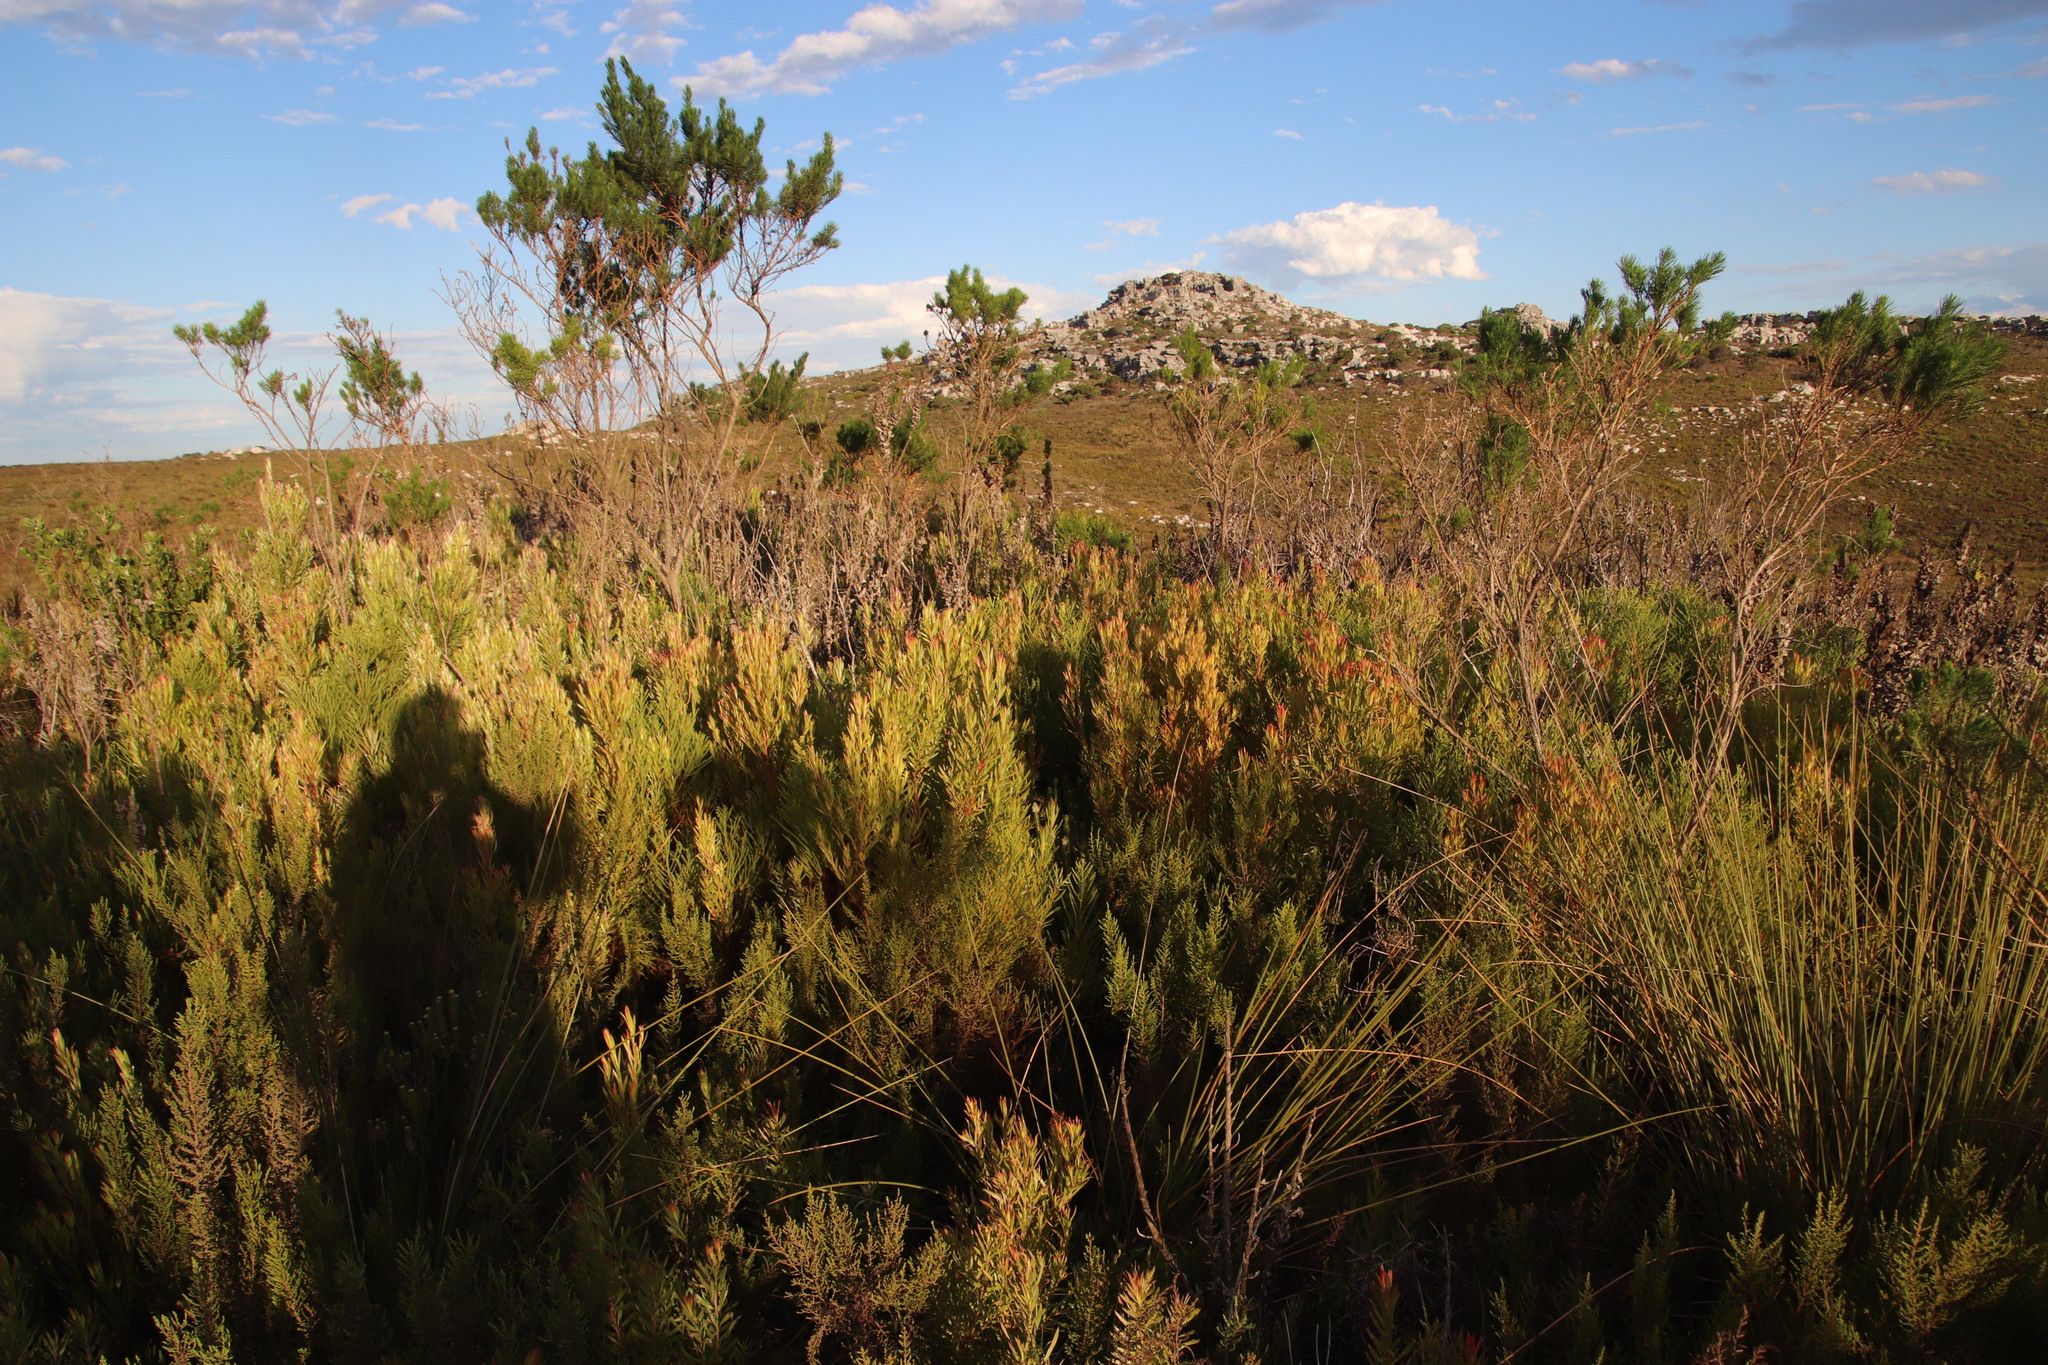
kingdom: Plantae
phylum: Tracheophyta
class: Magnoliopsida
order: Proteales
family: Proteaceae
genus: Leucadendron
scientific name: Leucadendron xanthoconus
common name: Sickle-leaf conebush
